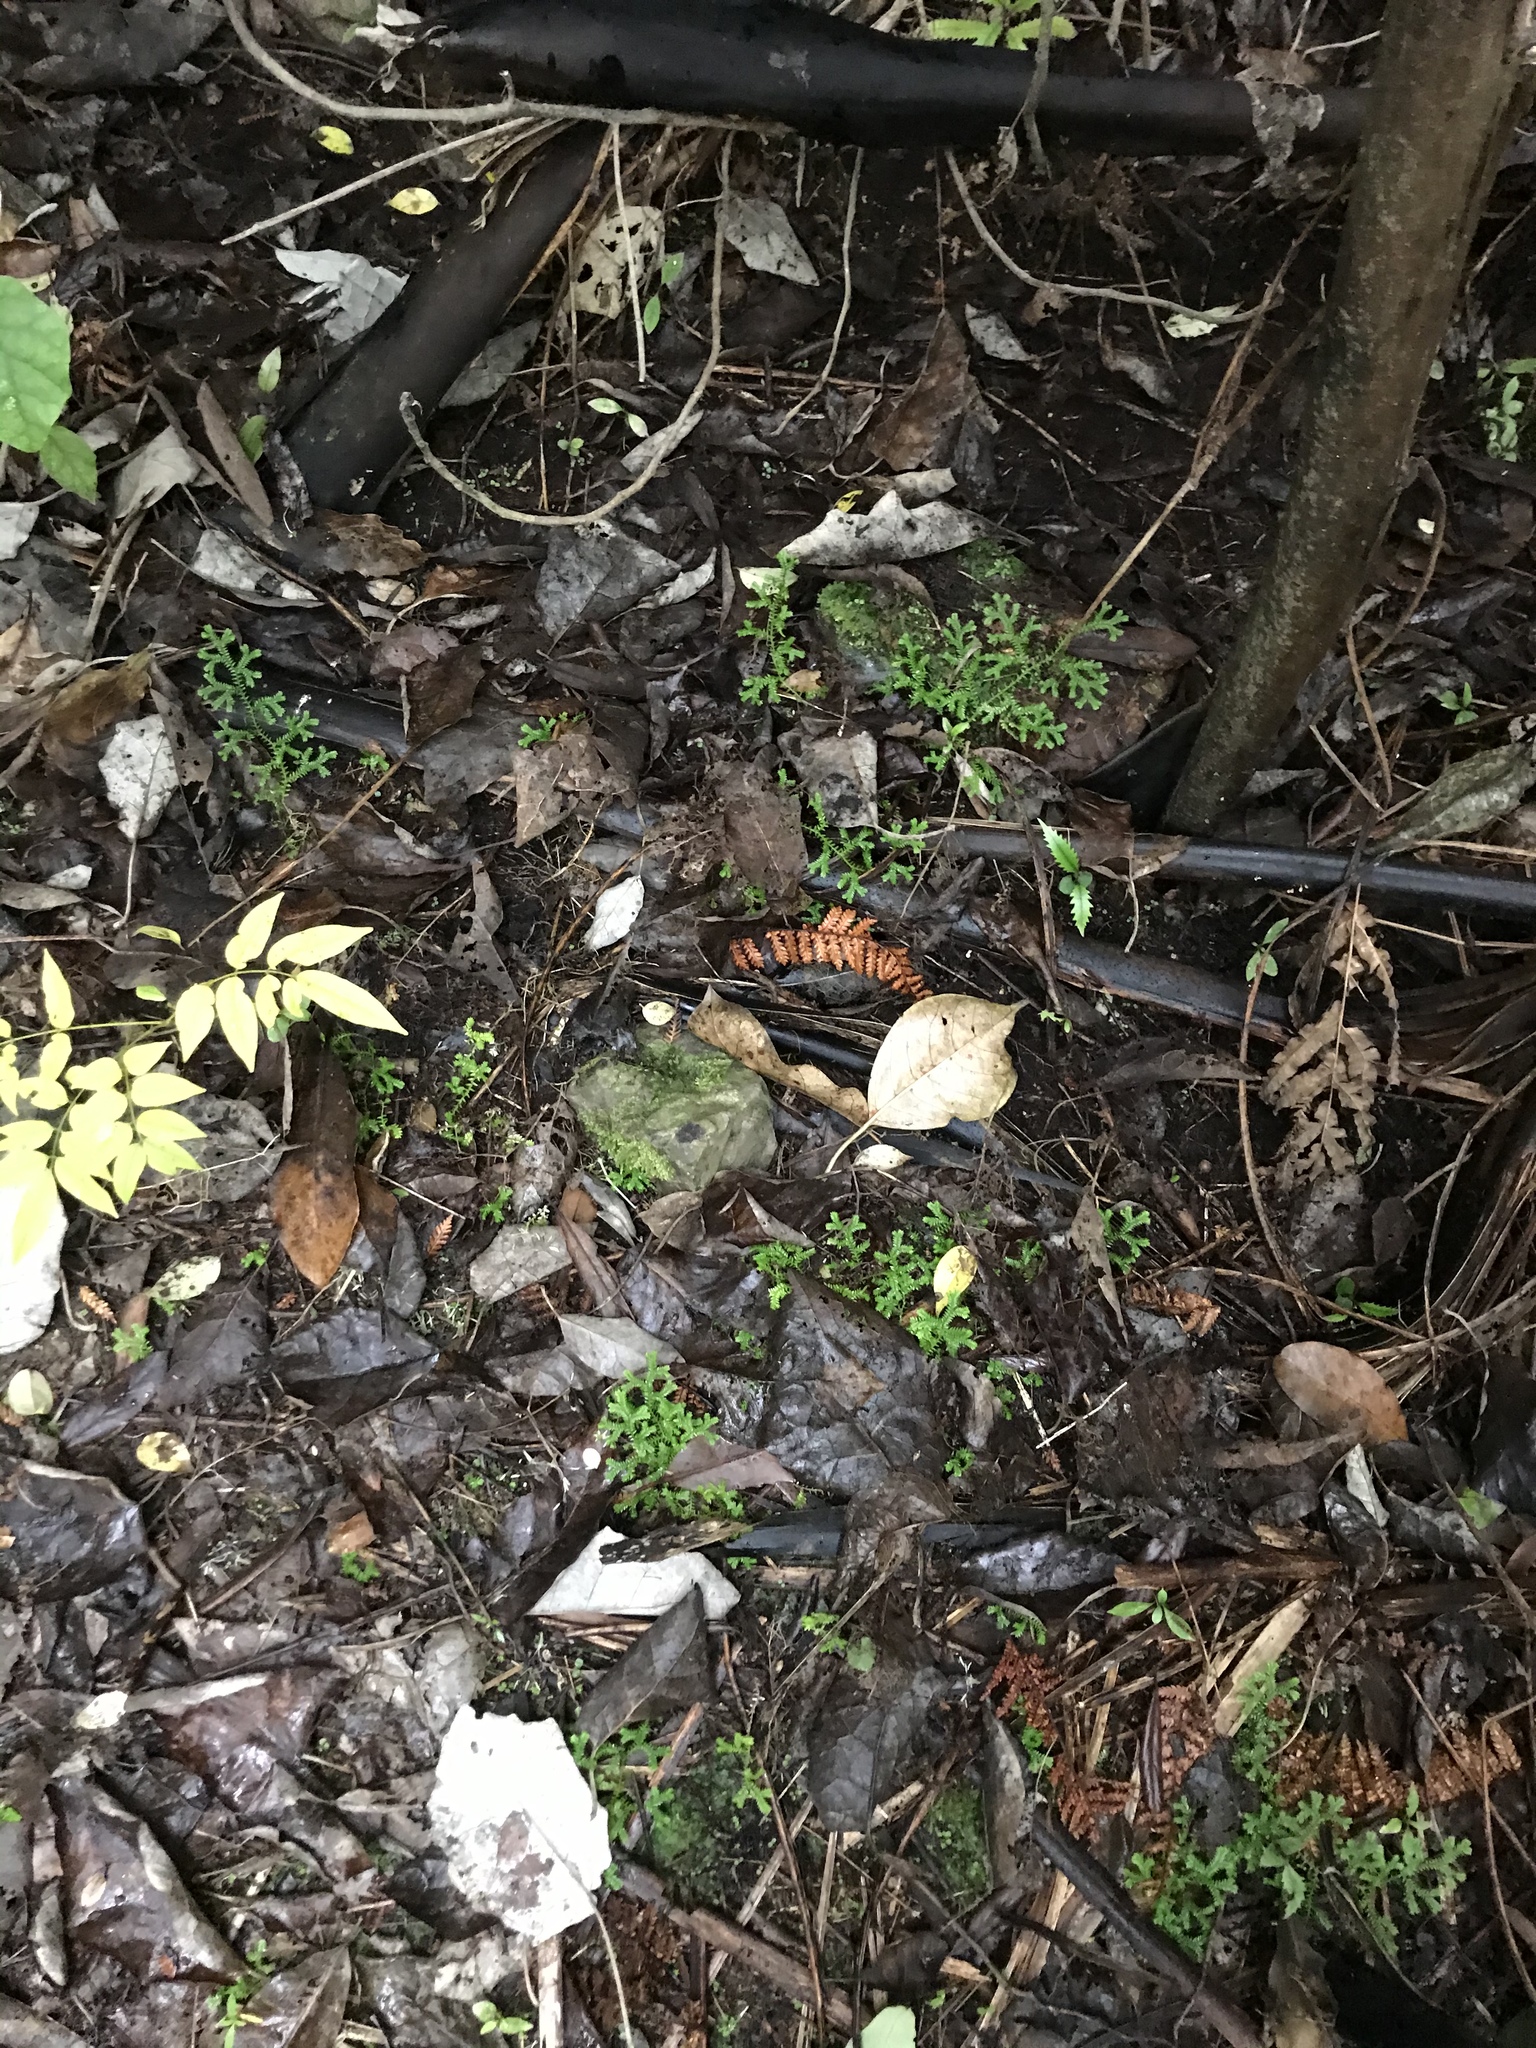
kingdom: Plantae
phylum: Tracheophyta
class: Lycopodiopsida
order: Selaginellales
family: Selaginellaceae
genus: Selaginella
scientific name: Selaginella kraussiana
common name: Krauss' spikemoss
